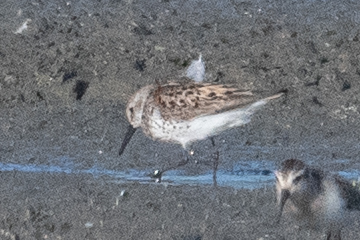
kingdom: Animalia
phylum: Chordata
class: Aves
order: Charadriiformes
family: Scolopacidae
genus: Calidris
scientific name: Calidris mauri
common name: Western sandpiper
